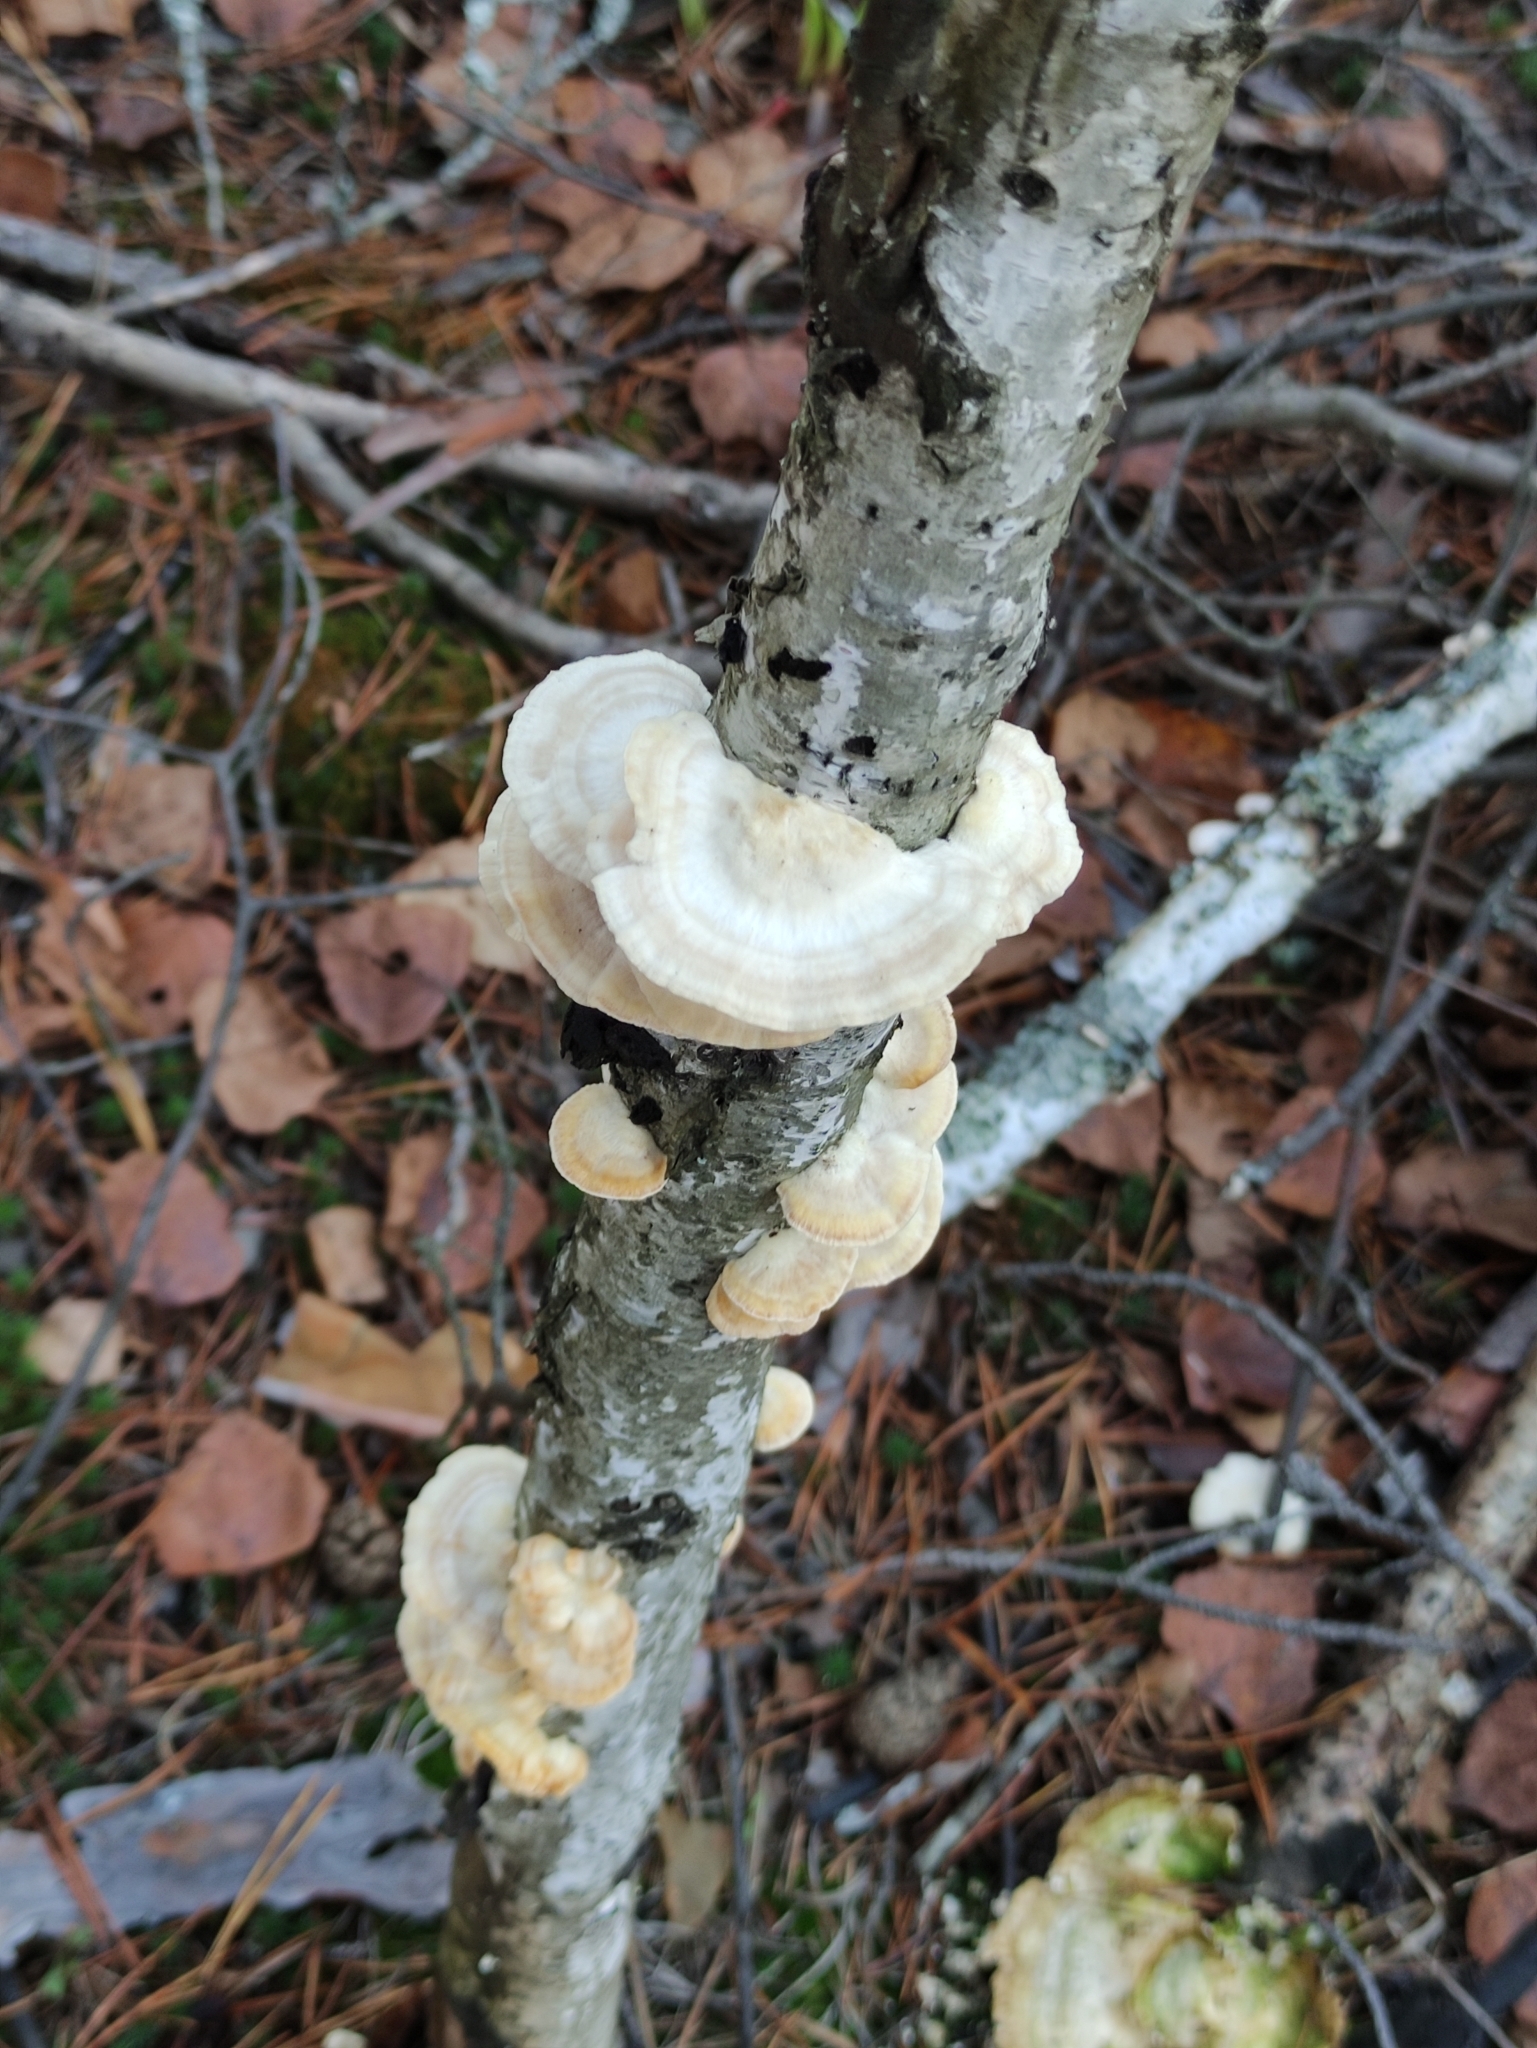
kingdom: Fungi
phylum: Basidiomycota
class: Agaricomycetes
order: Polyporales
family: Polyporaceae
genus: Trametes
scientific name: Trametes hirsuta
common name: Hairy bracket
